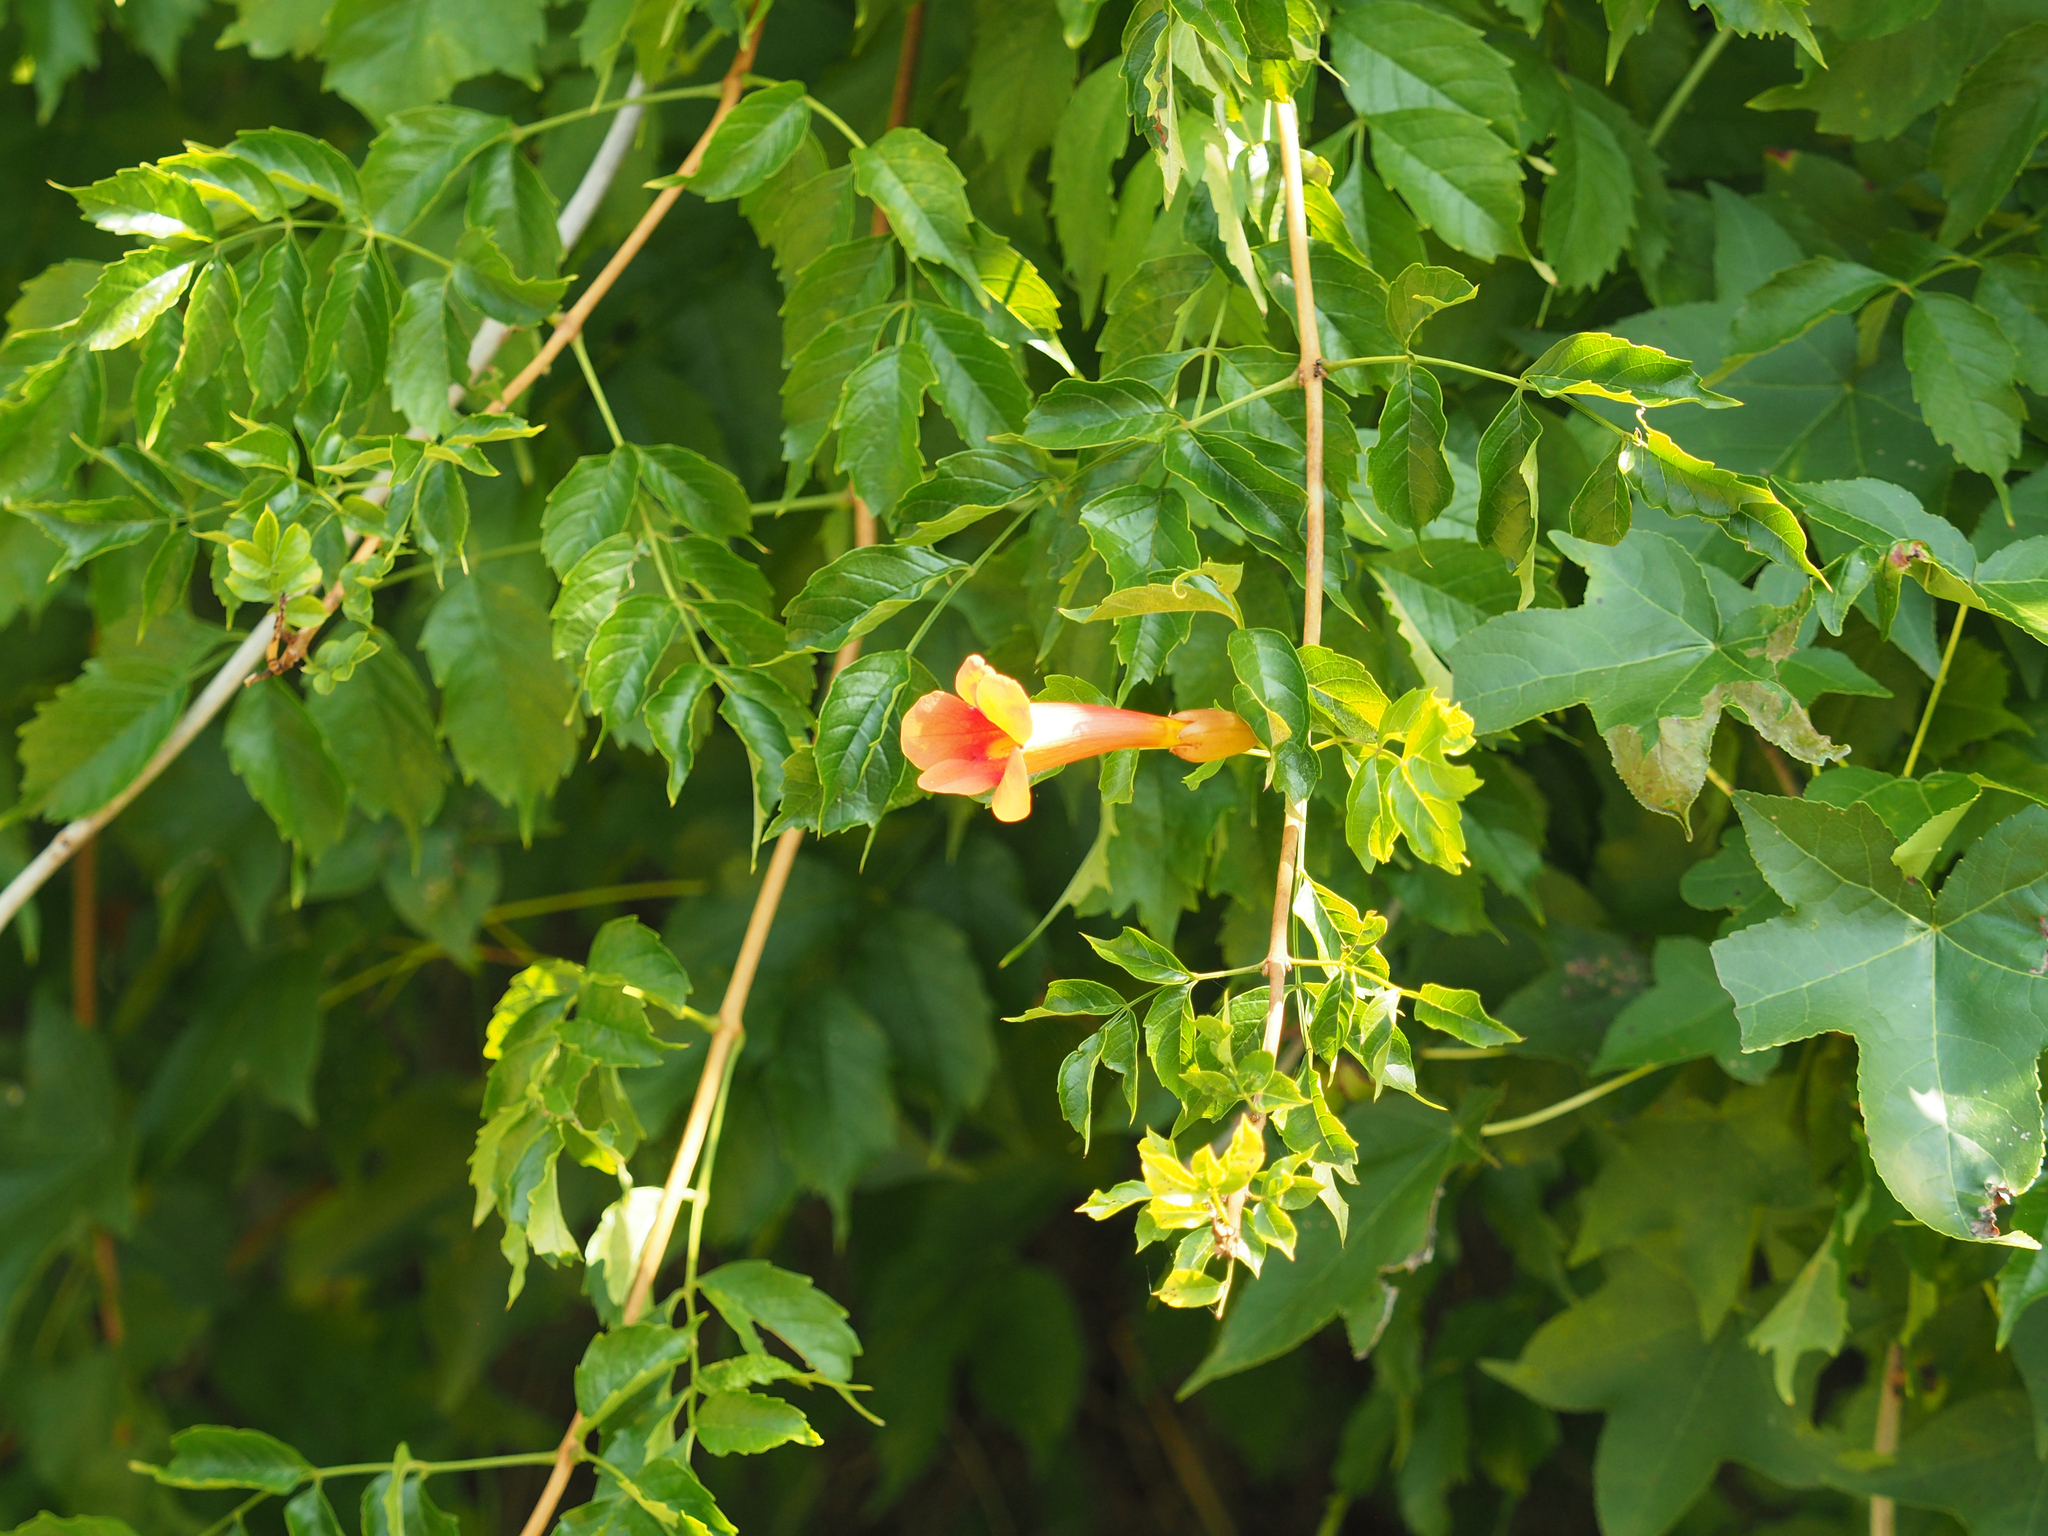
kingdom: Plantae
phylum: Tracheophyta
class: Magnoliopsida
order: Lamiales
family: Bignoniaceae
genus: Campsis
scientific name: Campsis radicans
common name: Trumpet-creeper
